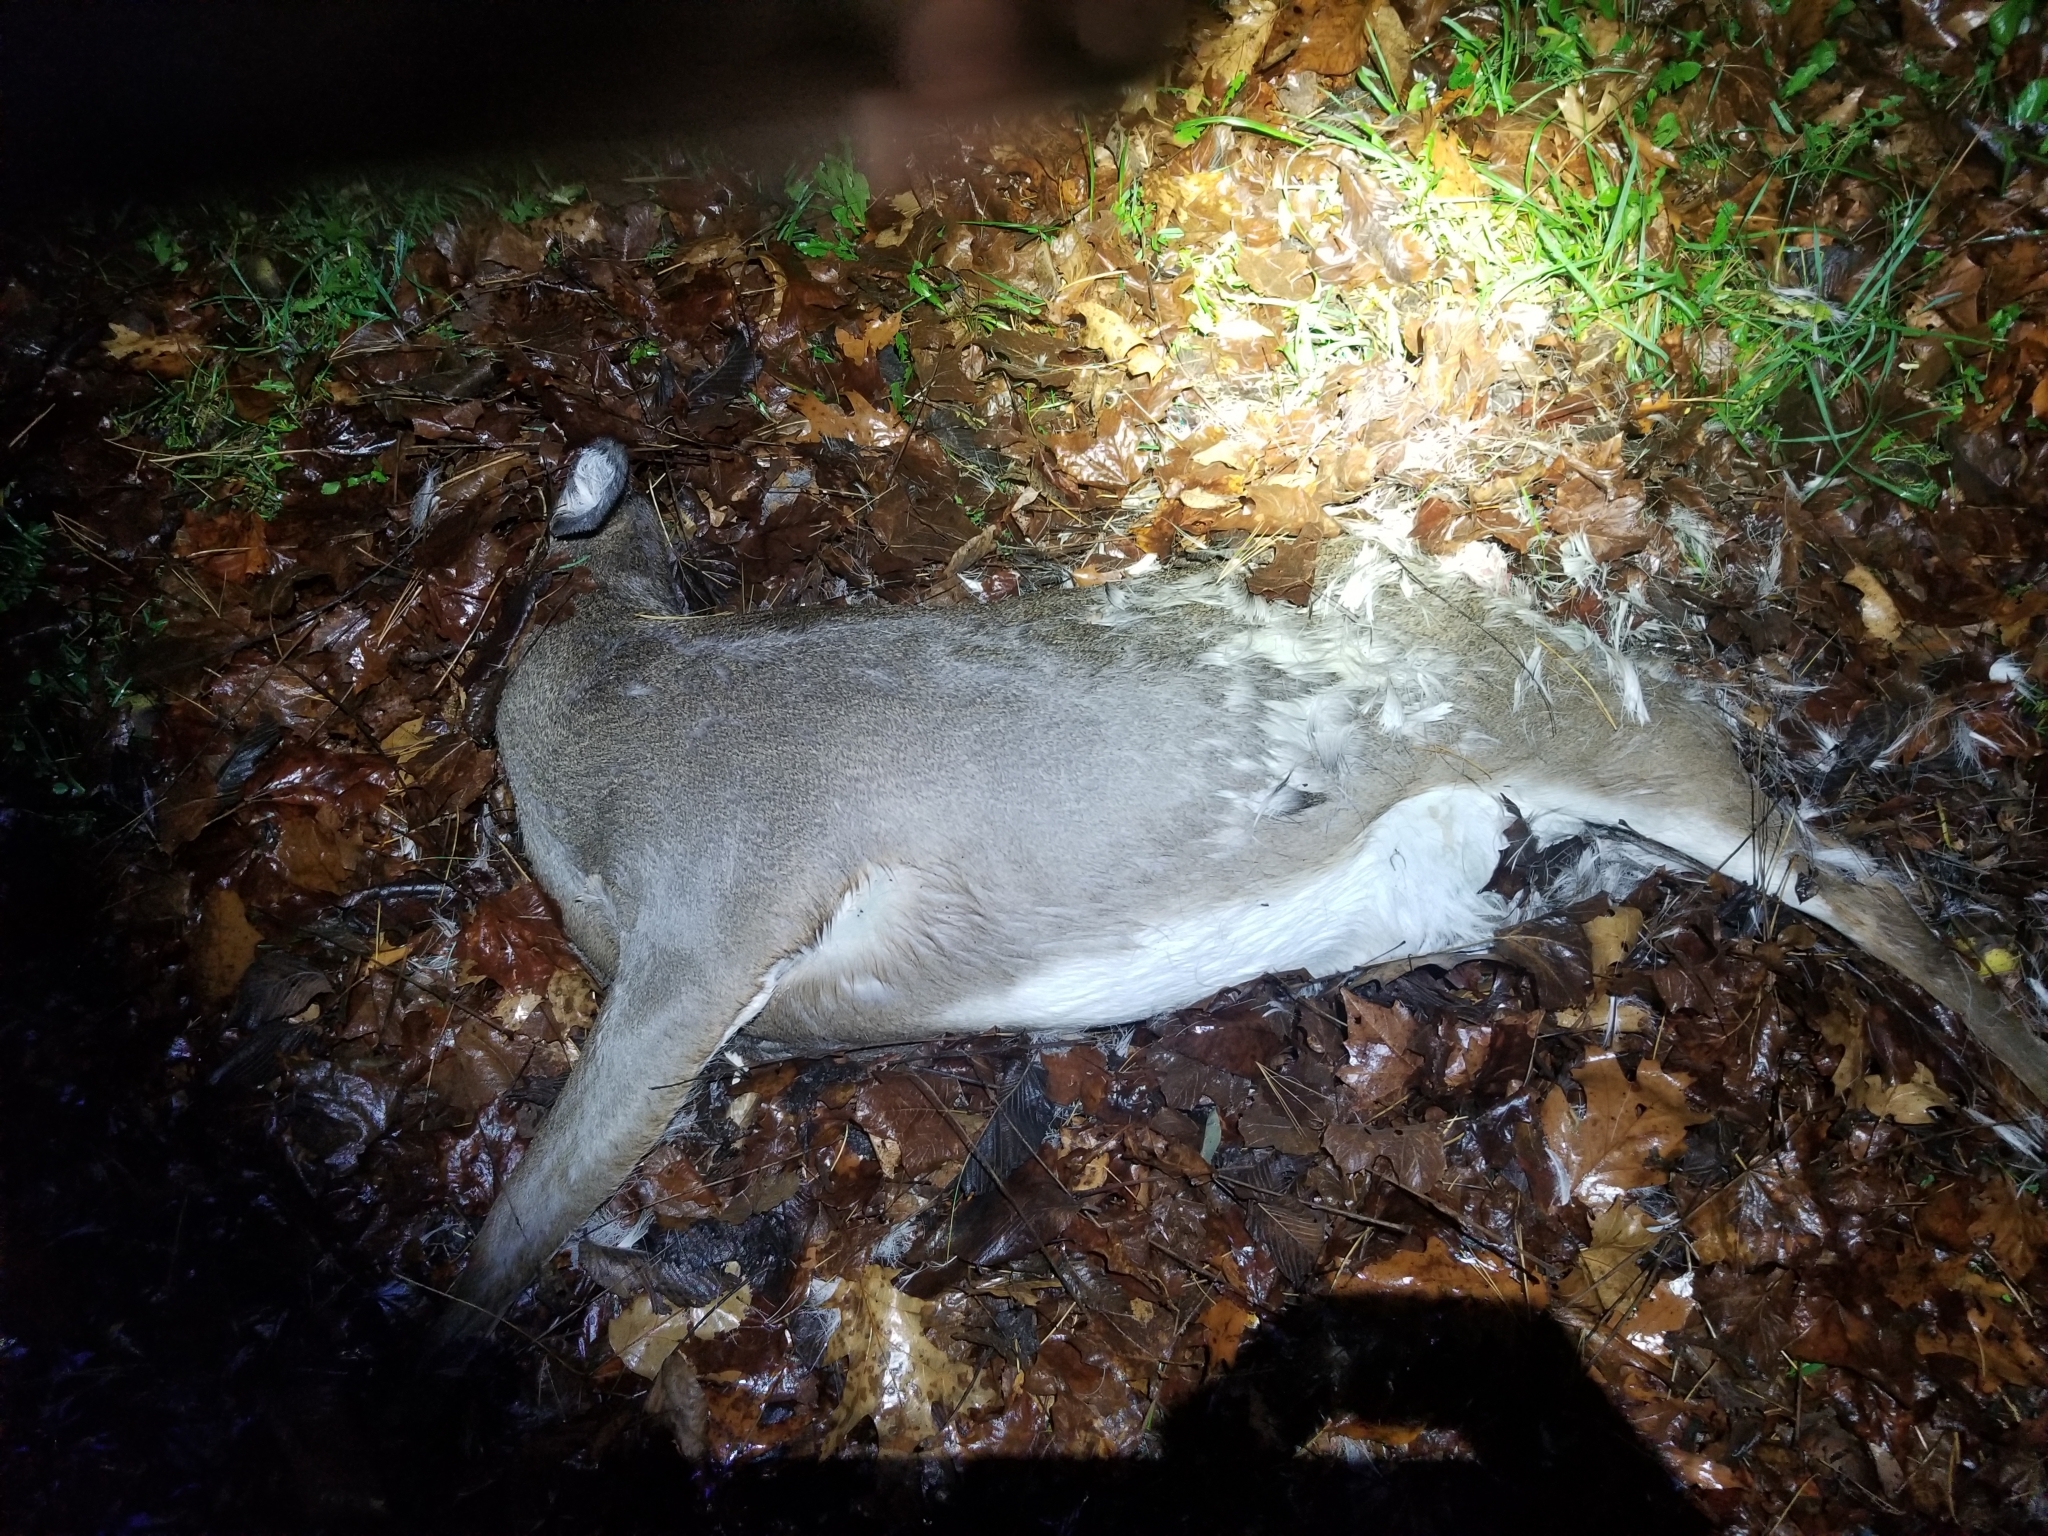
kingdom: Animalia
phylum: Chordata
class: Mammalia
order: Artiodactyla
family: Cervidae
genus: Odocoileus
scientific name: Odocoileus virginianus
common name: White-tailed deer
